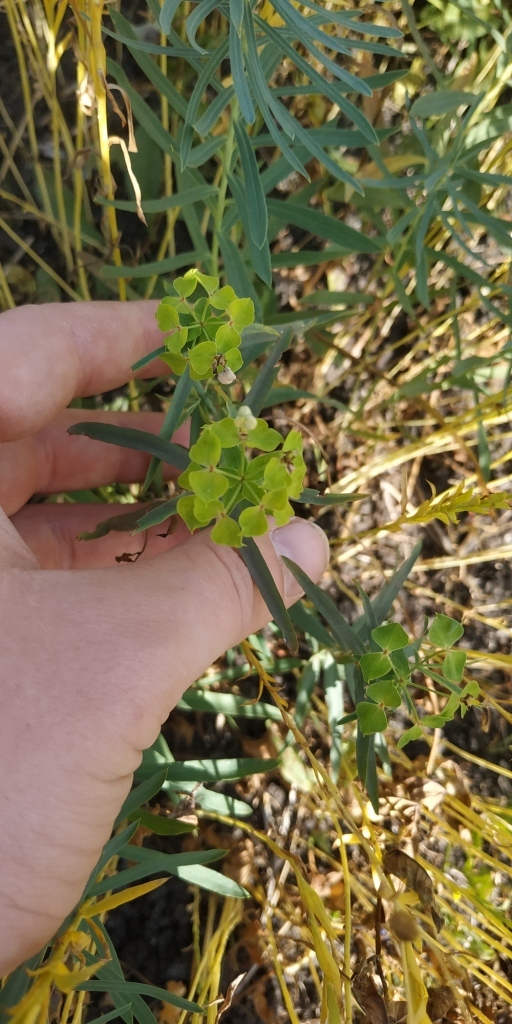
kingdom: Plantae
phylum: Tracheophyta
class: Magnoliopsida
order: Malpighiales
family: Euphorbiaceae
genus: Euphorbia
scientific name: Euphorbia virgata
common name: Leafy spurge
